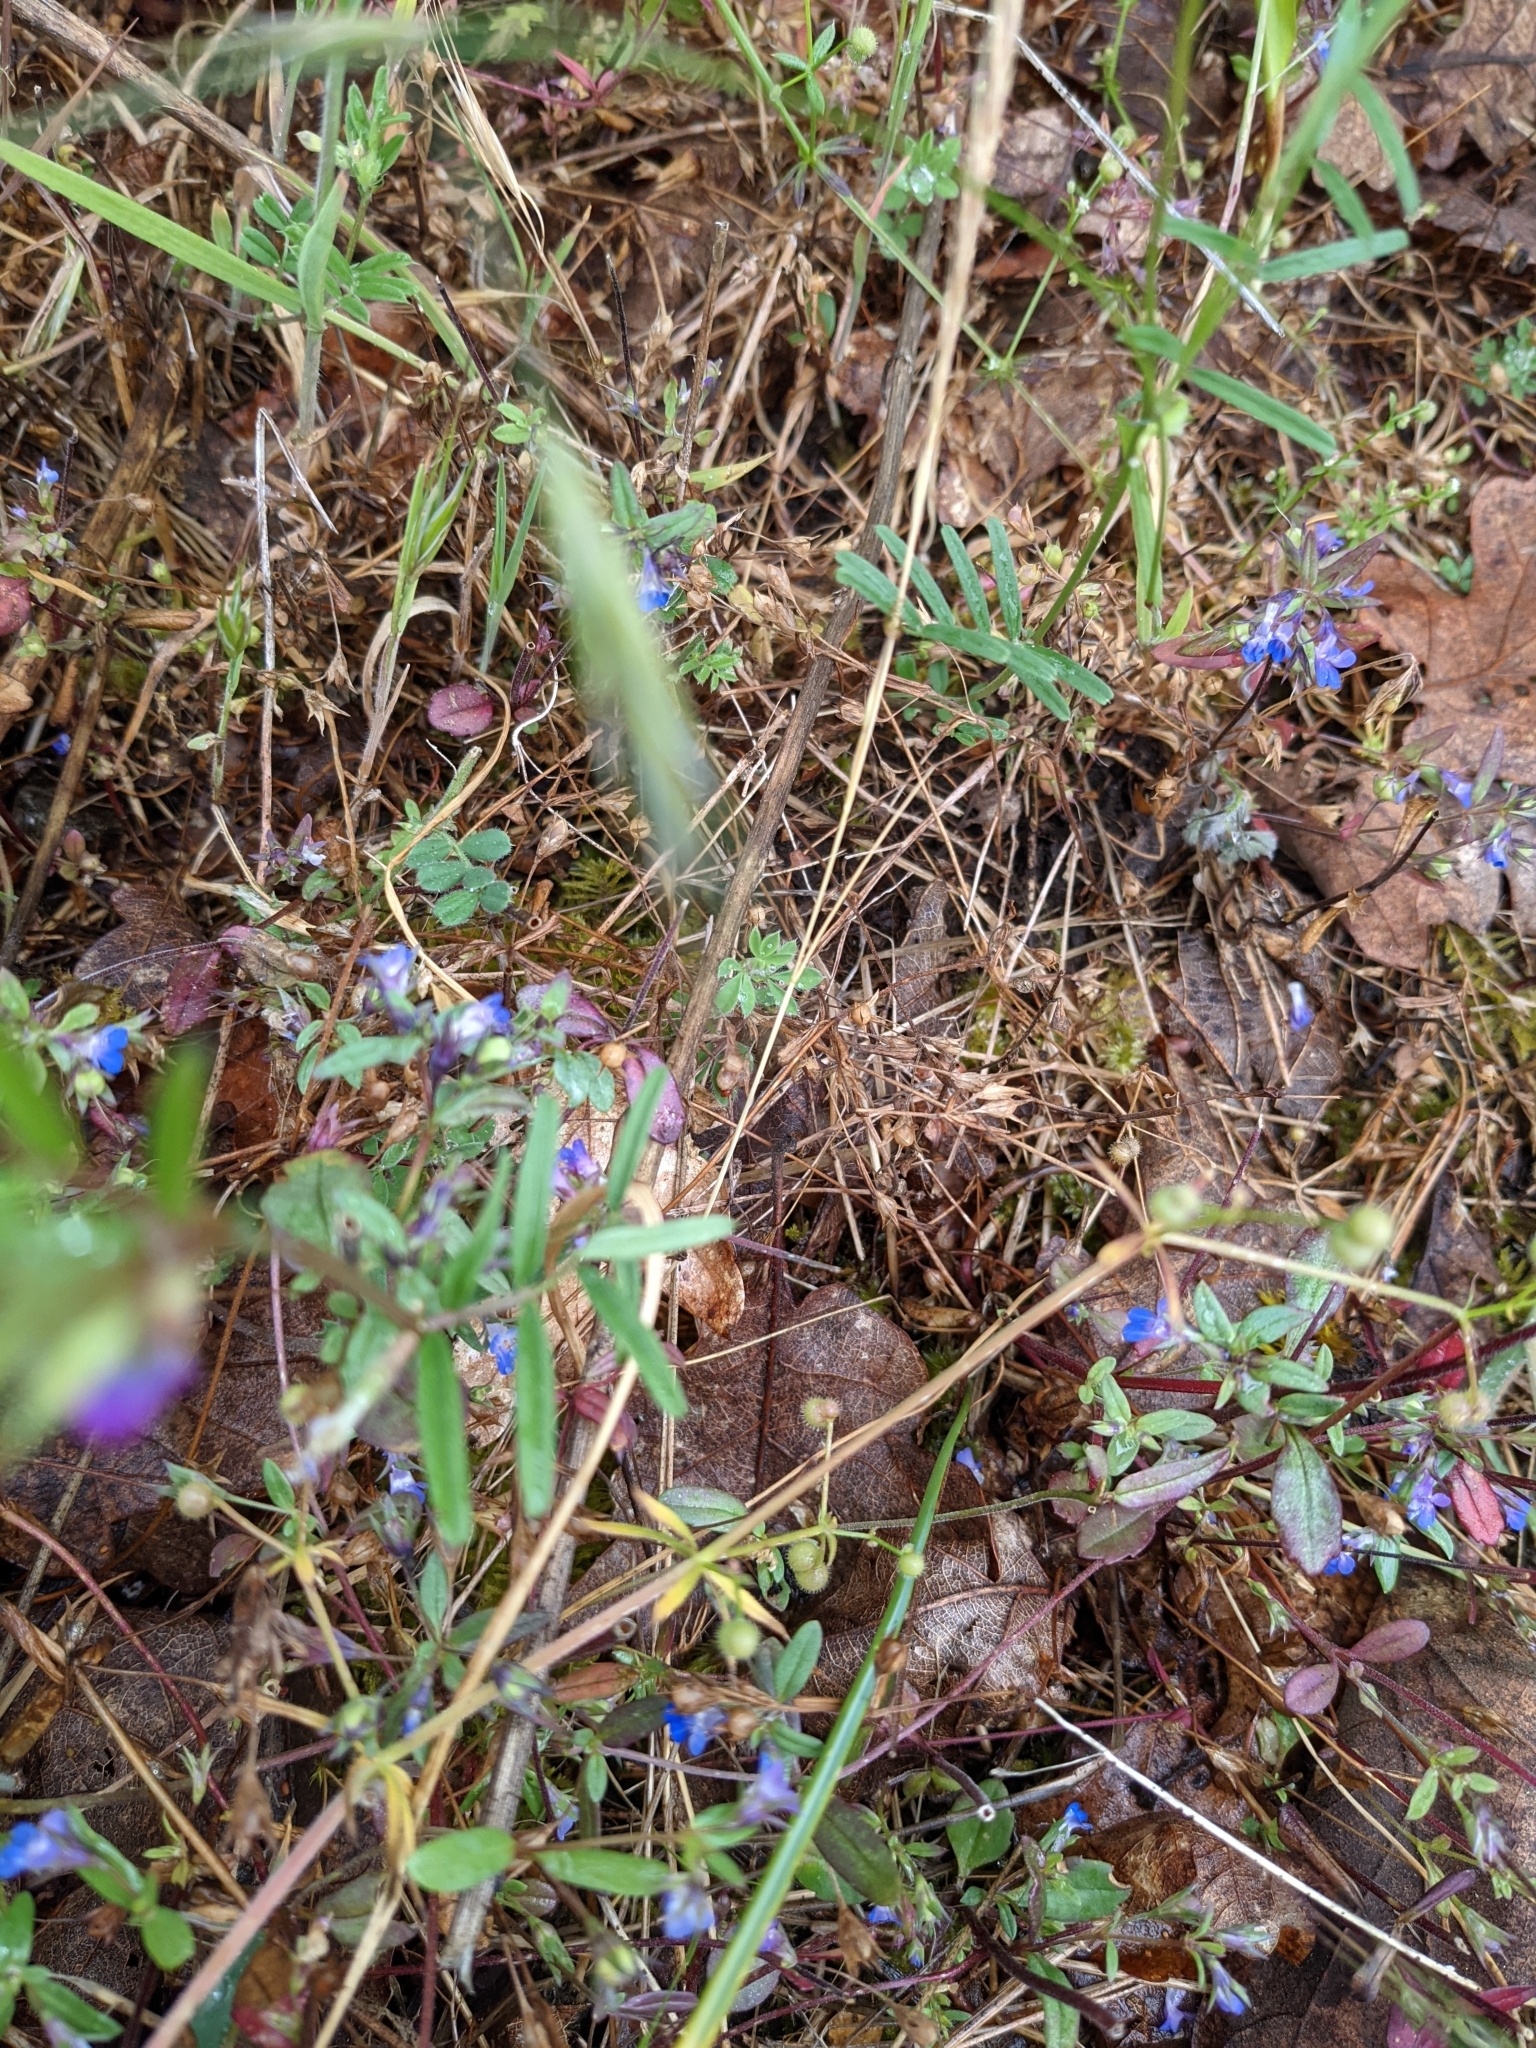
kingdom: Plantae
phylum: Tracheophyta
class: Magnoliopsida
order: Lamiales
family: Plantaginaceae
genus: Collinsia
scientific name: Collinsia parviflora
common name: Blue-lips
